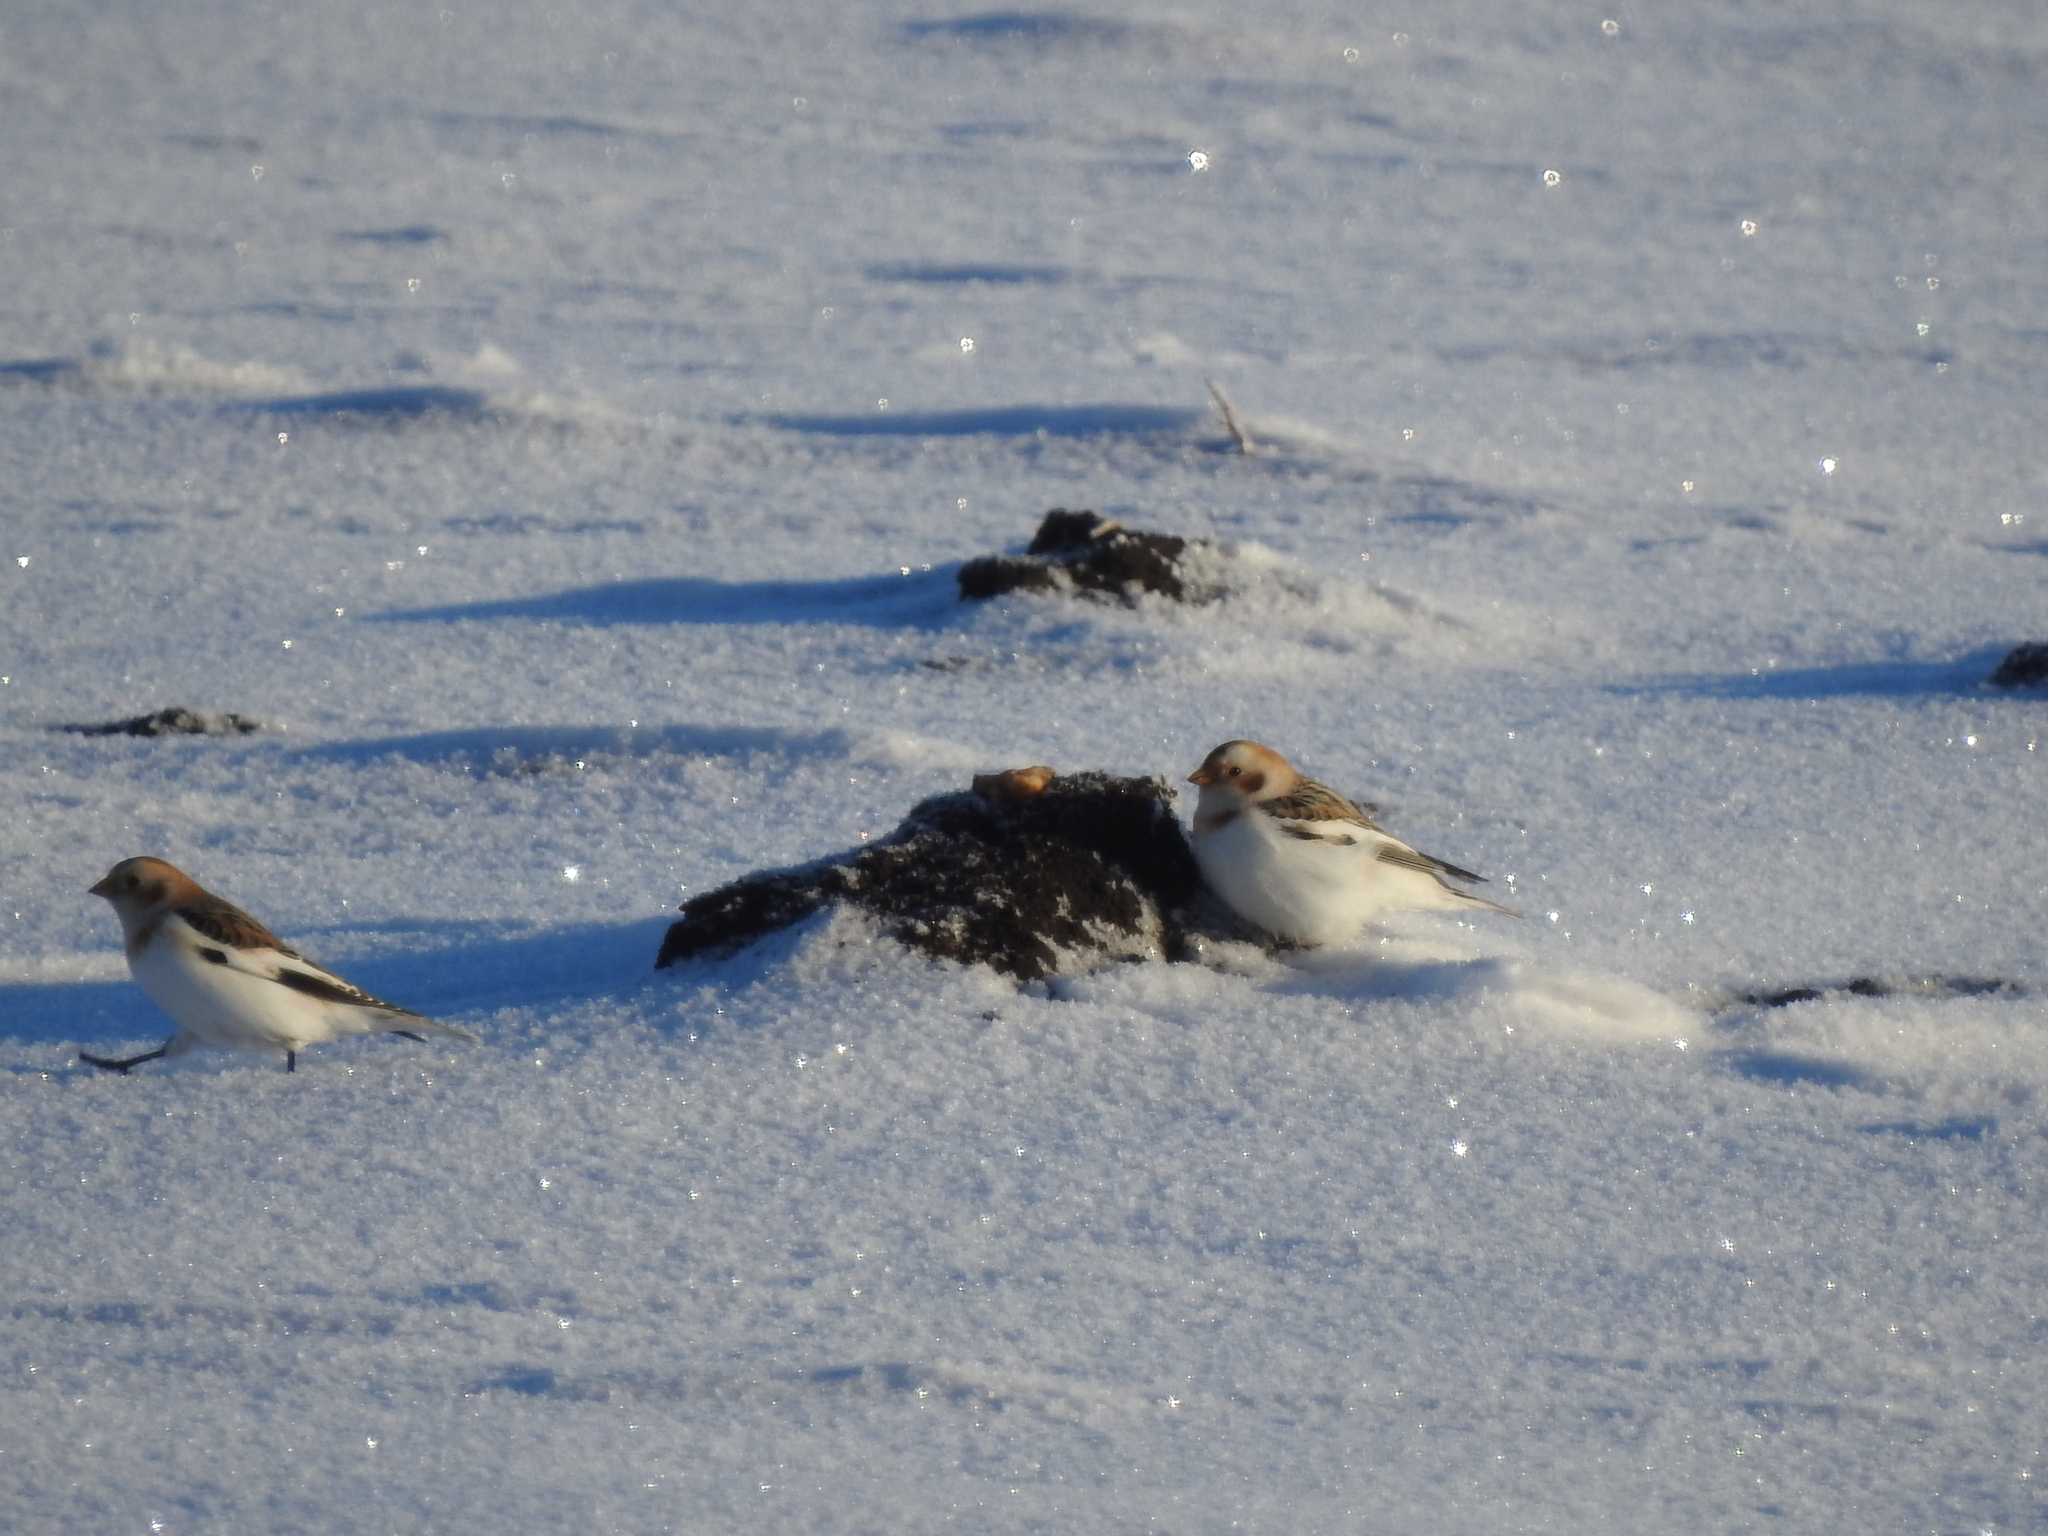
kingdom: Animalia
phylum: Chordata
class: Aves
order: Passeriformes
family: Calcariidae
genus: Plectrophenax
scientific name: Plectrophenax nivalis
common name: Snow bunting
